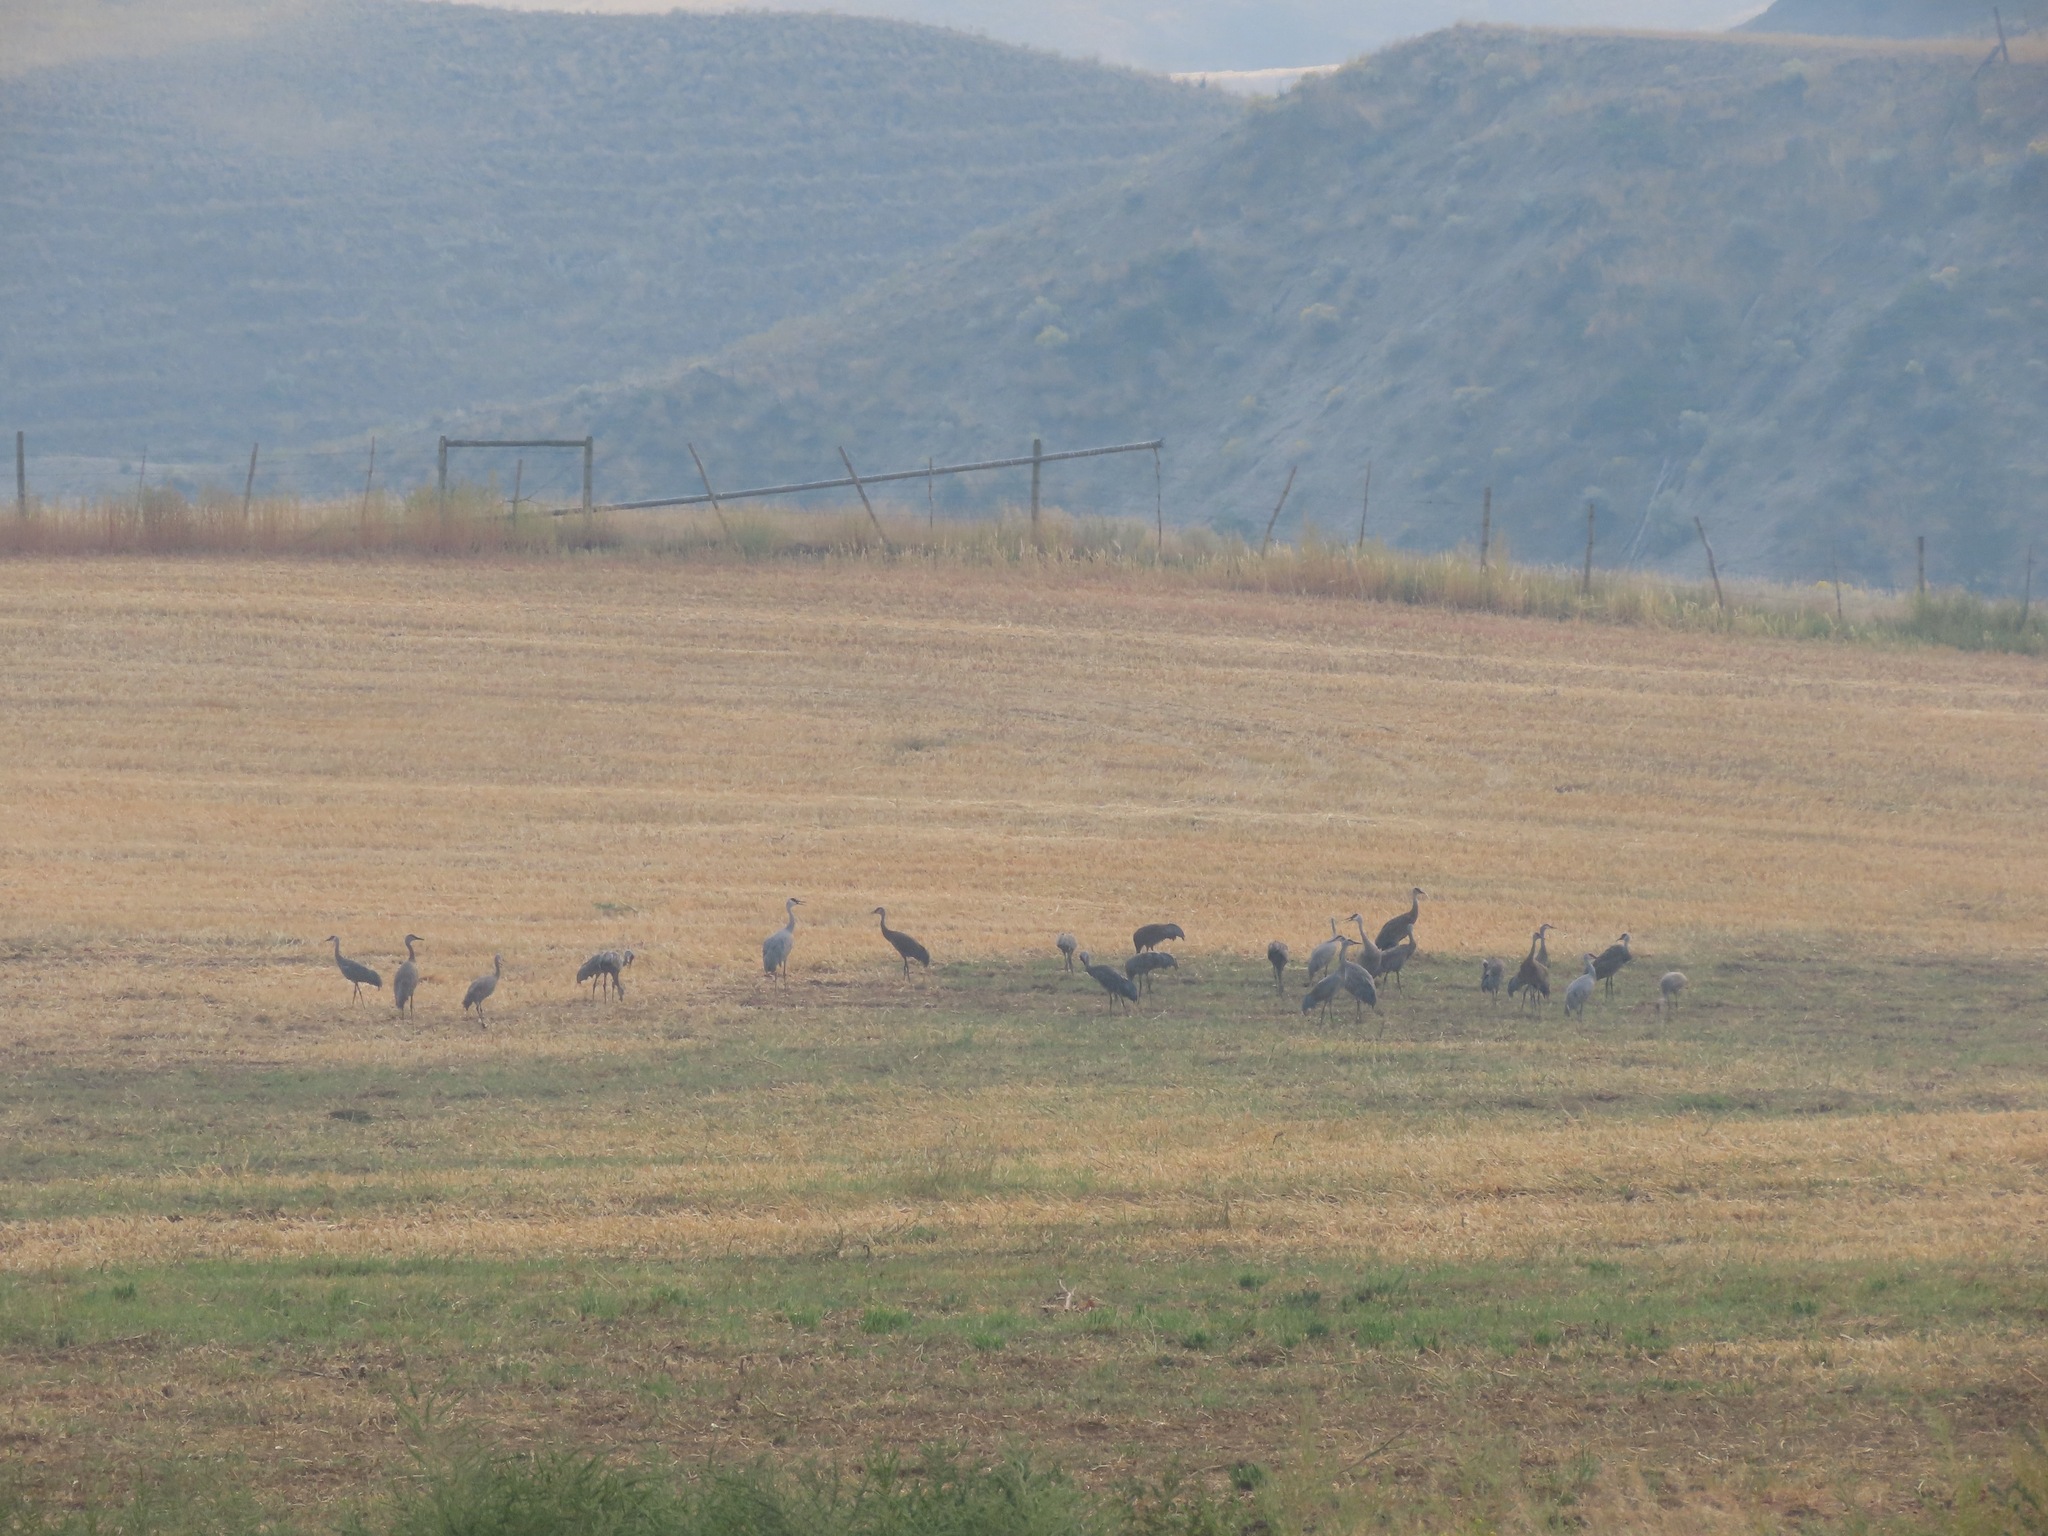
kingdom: Animalia
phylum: Chordata
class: Aves
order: Gruiformes
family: Gruidae
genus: Grus
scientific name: Grus canadensis
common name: Sandhill crane
